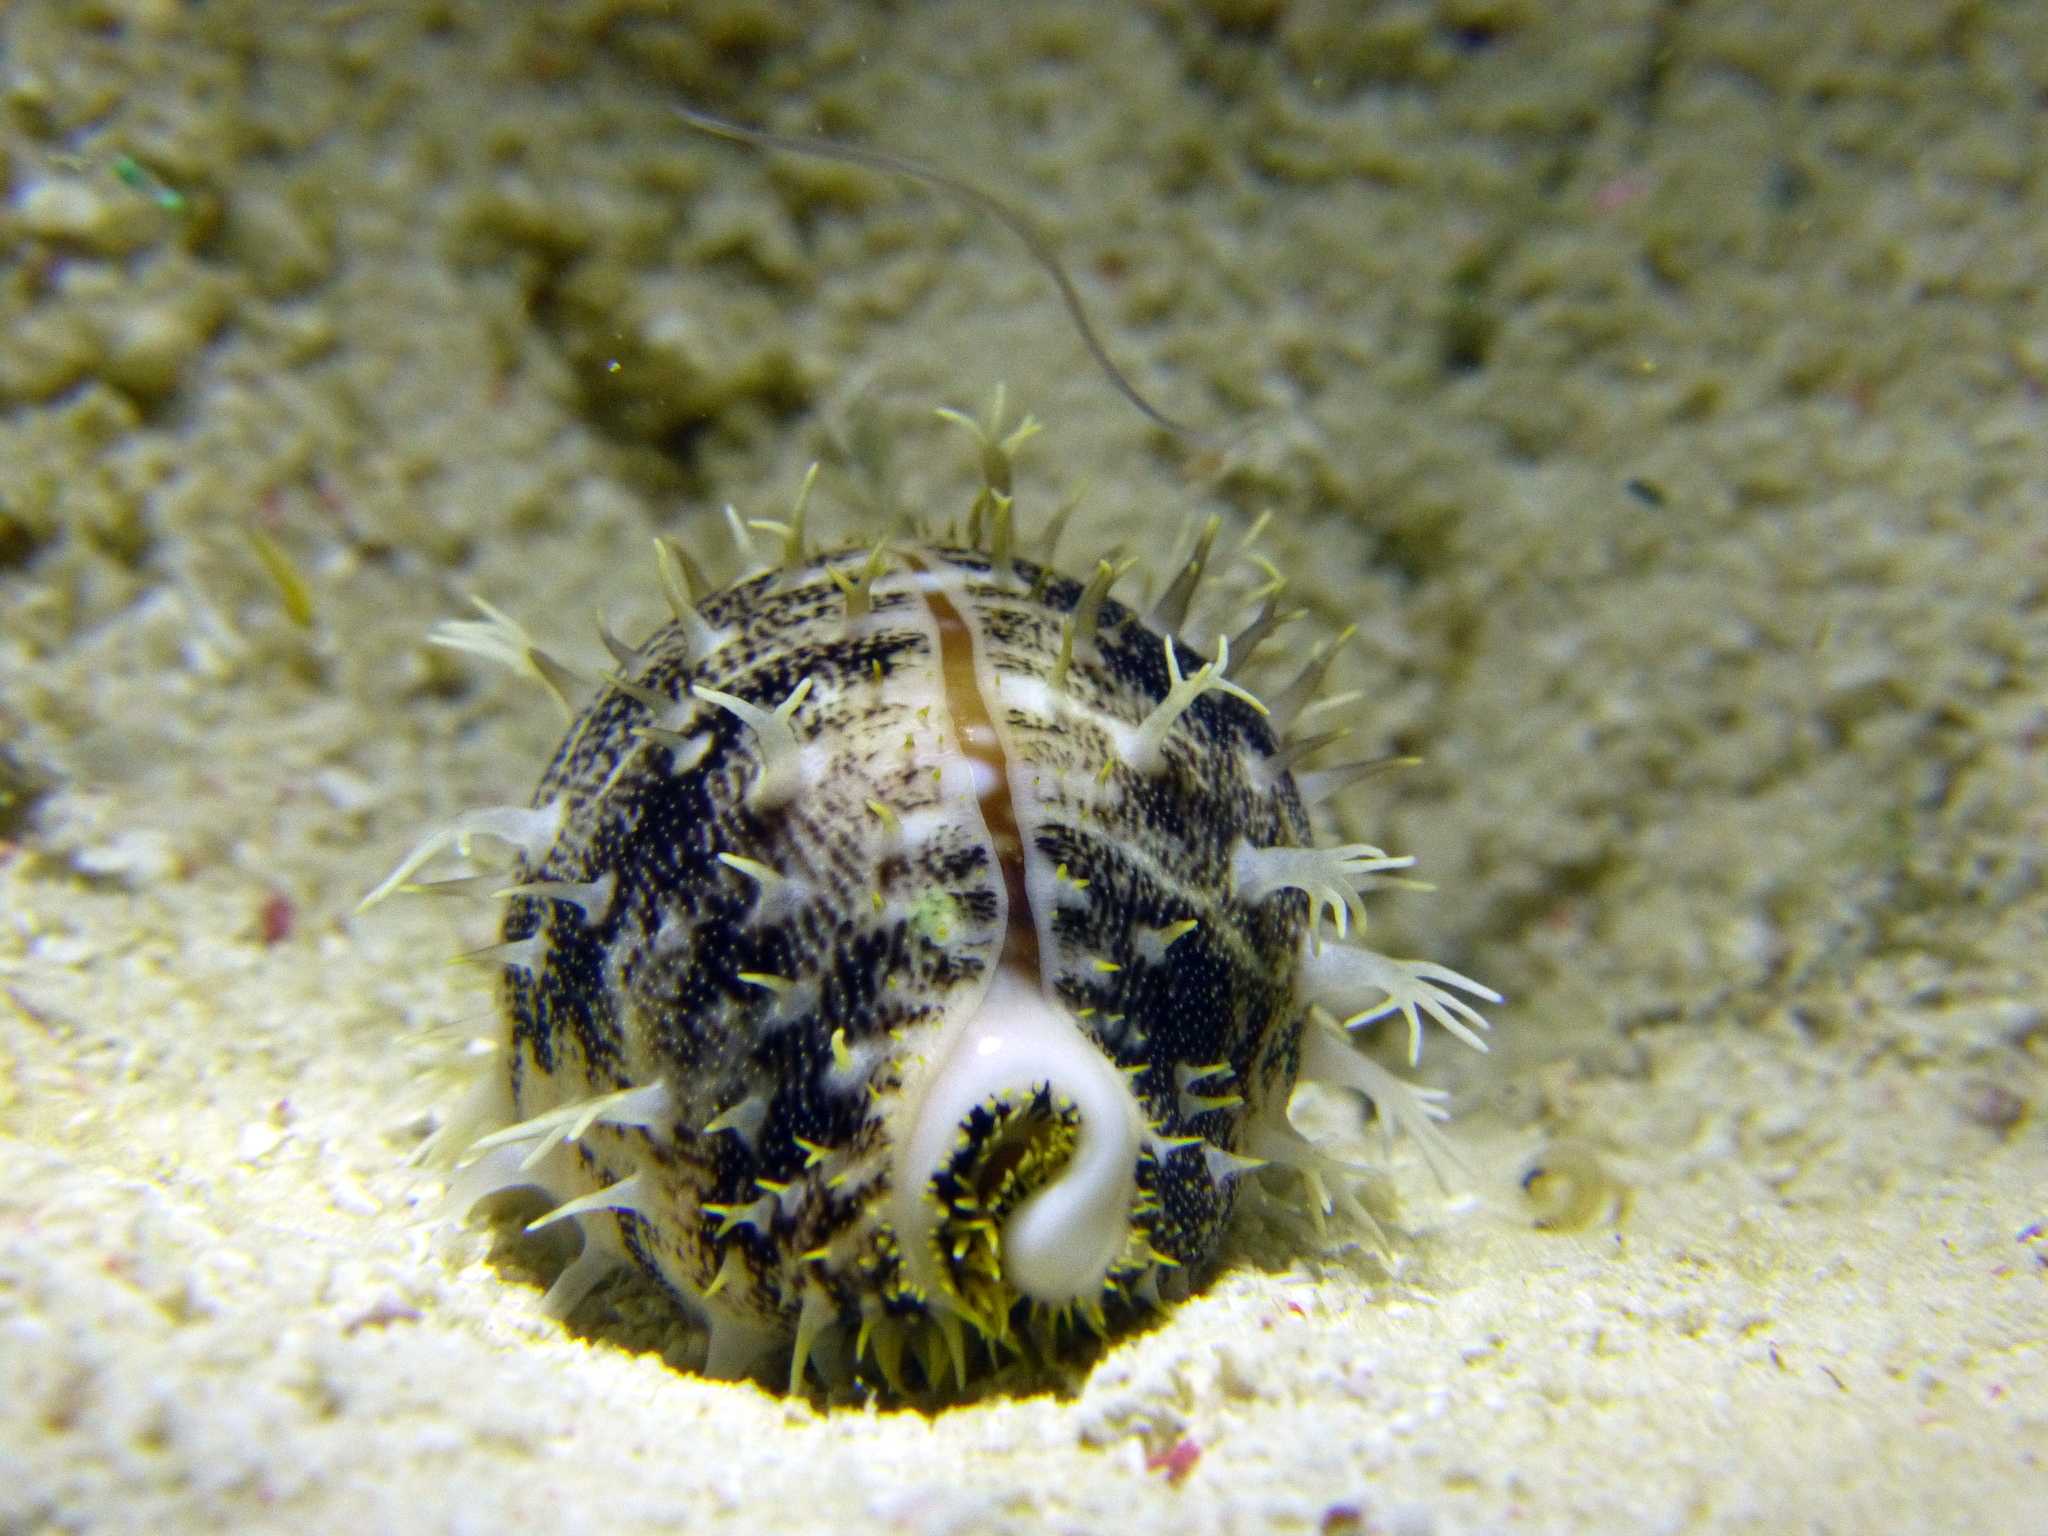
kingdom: Animalia
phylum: Mollusca
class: Gastropoda
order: Littorinimorpha
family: Cypraeidae
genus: Lyncina
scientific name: Lyncina vitellus
